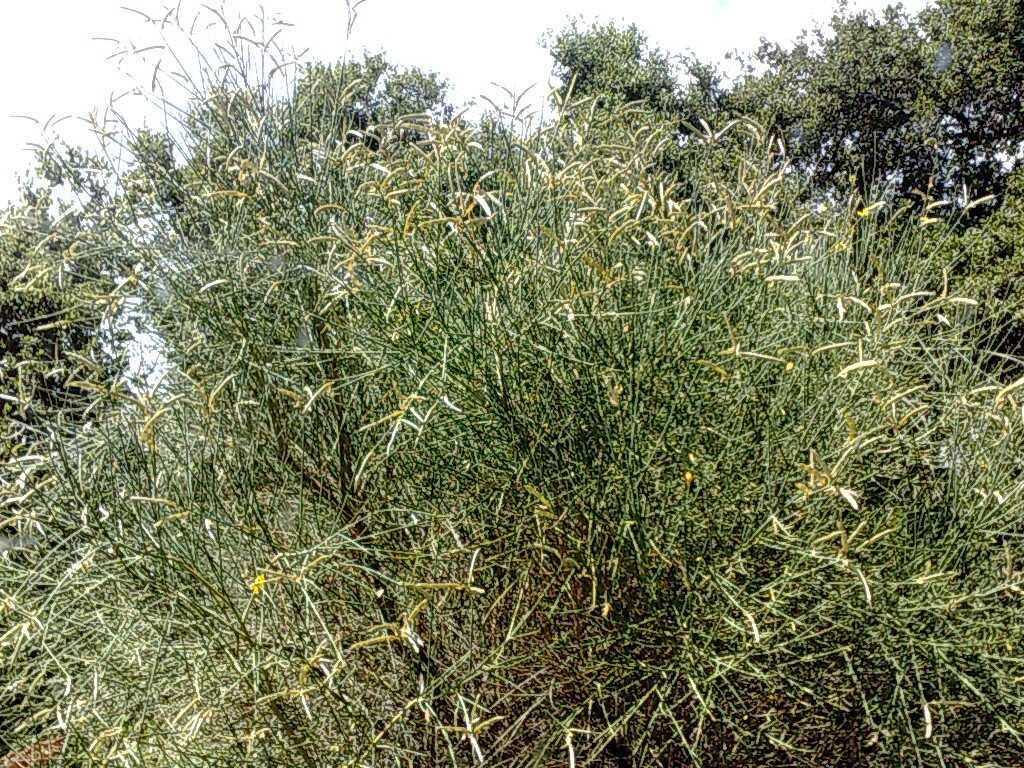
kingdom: Plantae
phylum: Tracheophyta
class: Magnoliopsida
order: Fabales
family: Fabaceae
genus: Spartium
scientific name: Spartium junceum
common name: Spanish broom
